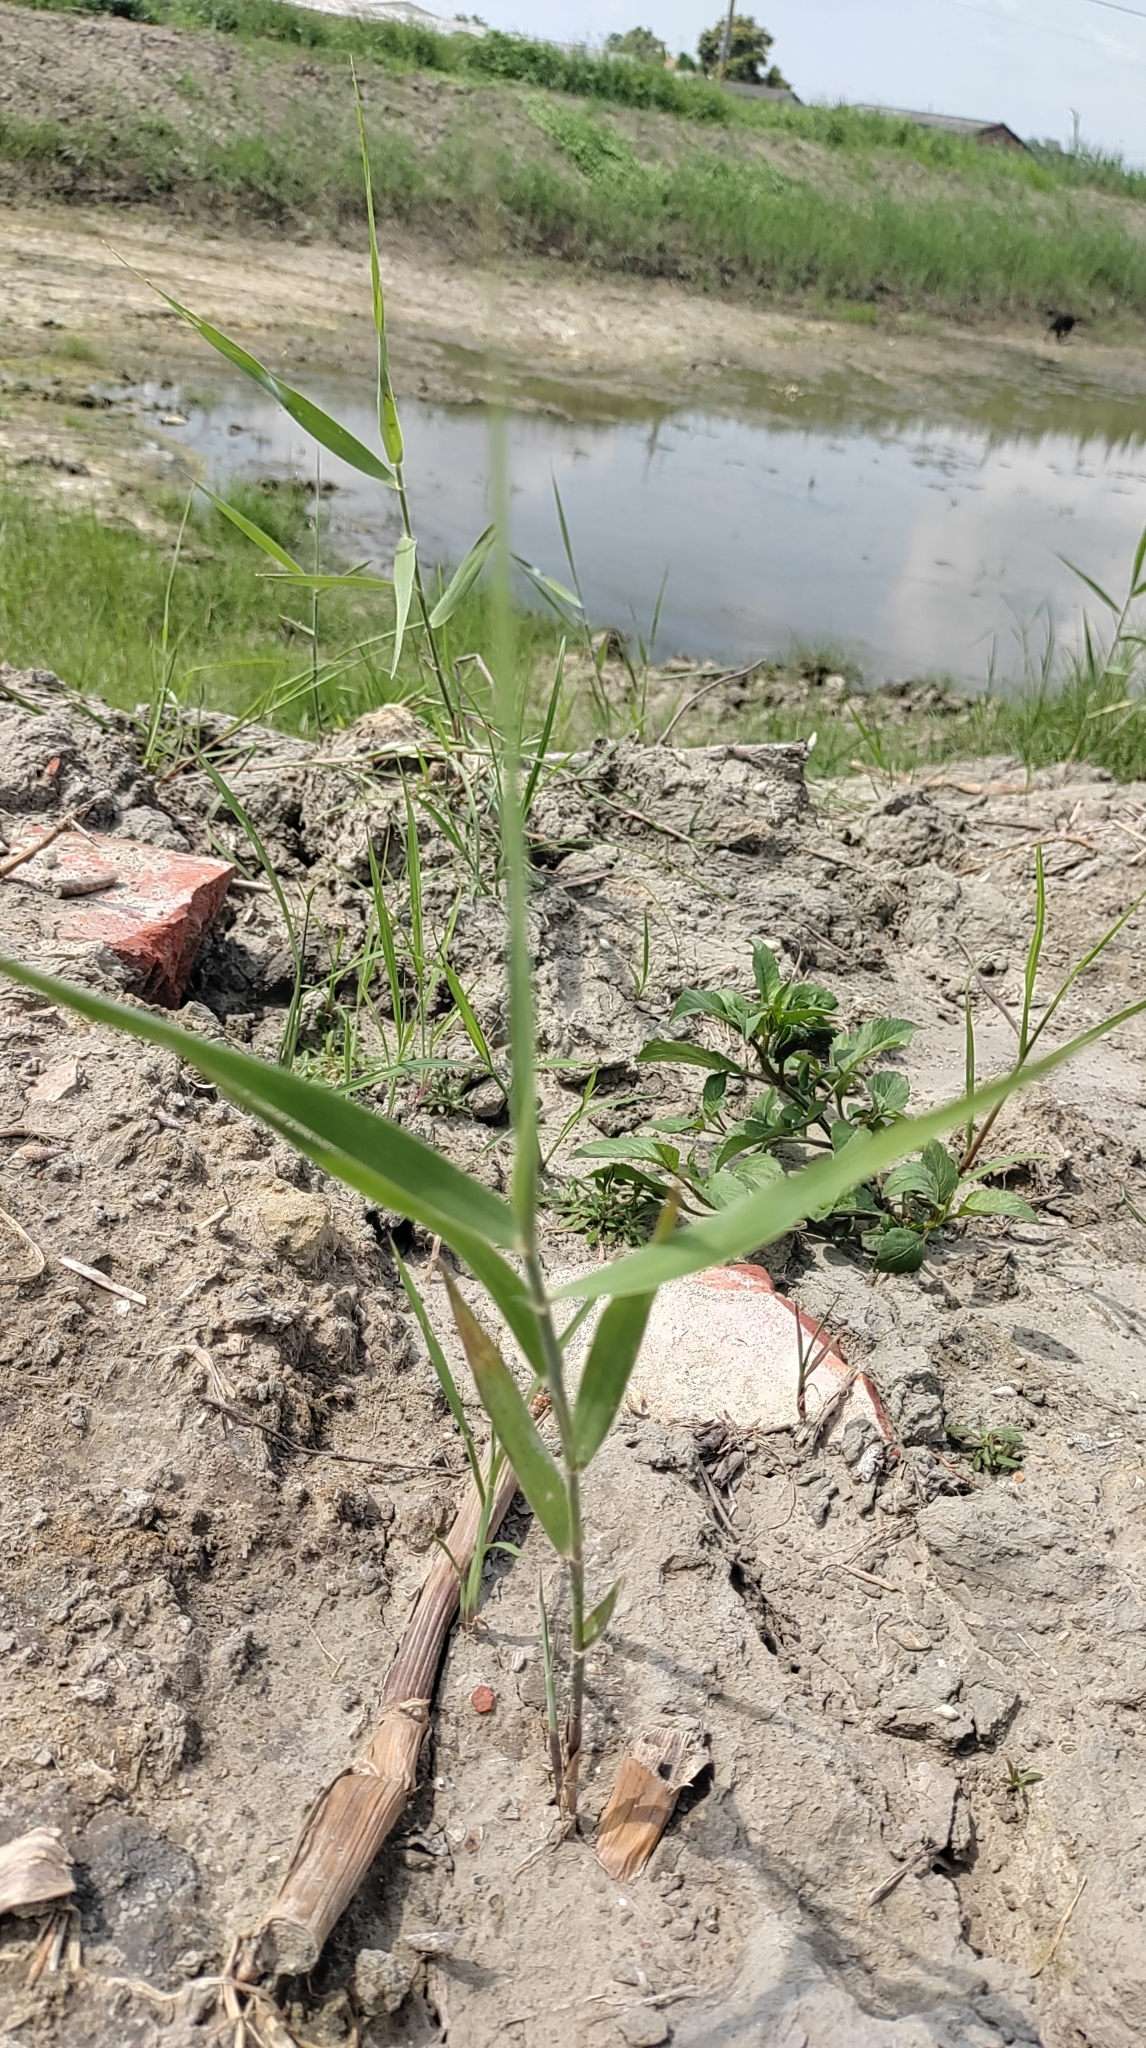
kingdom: Plantae
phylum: Tracheophyta
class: Liliopsida
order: Poales
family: Poaceae
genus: Phragmites
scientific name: Phragmites australis
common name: Common reed
